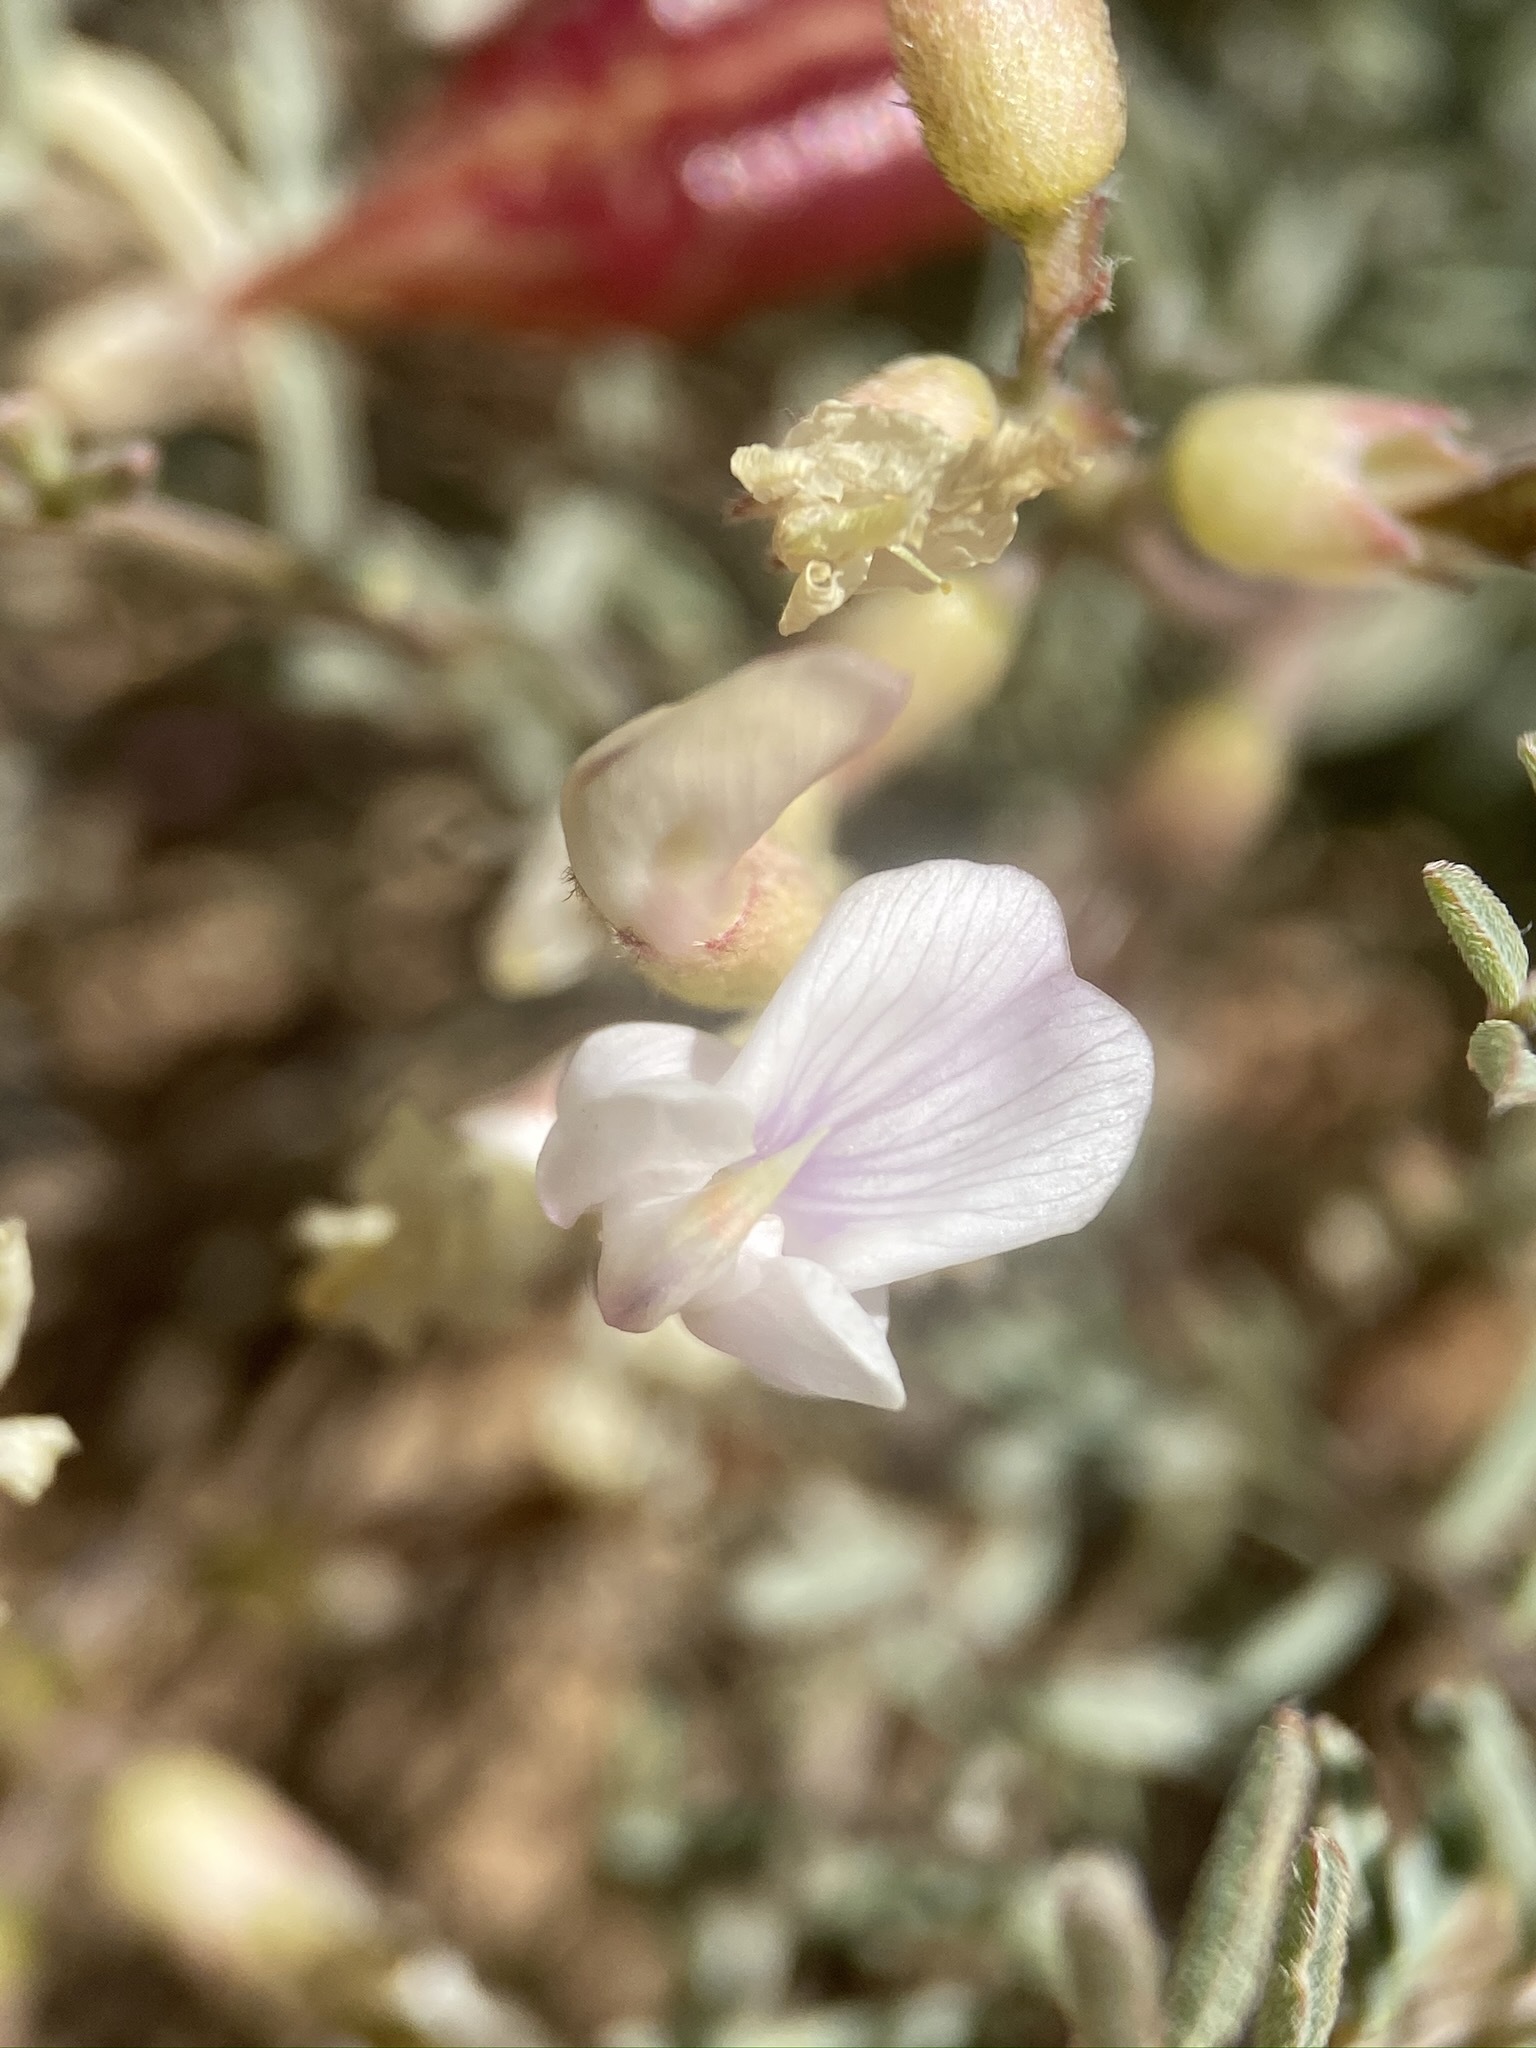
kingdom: Plantae
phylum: Tracheophyta
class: Magnoliopsida
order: Fabales
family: Fabaceae
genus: Astragalus
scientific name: Astragalus whitneyi
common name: Balloonpod milkvetch
